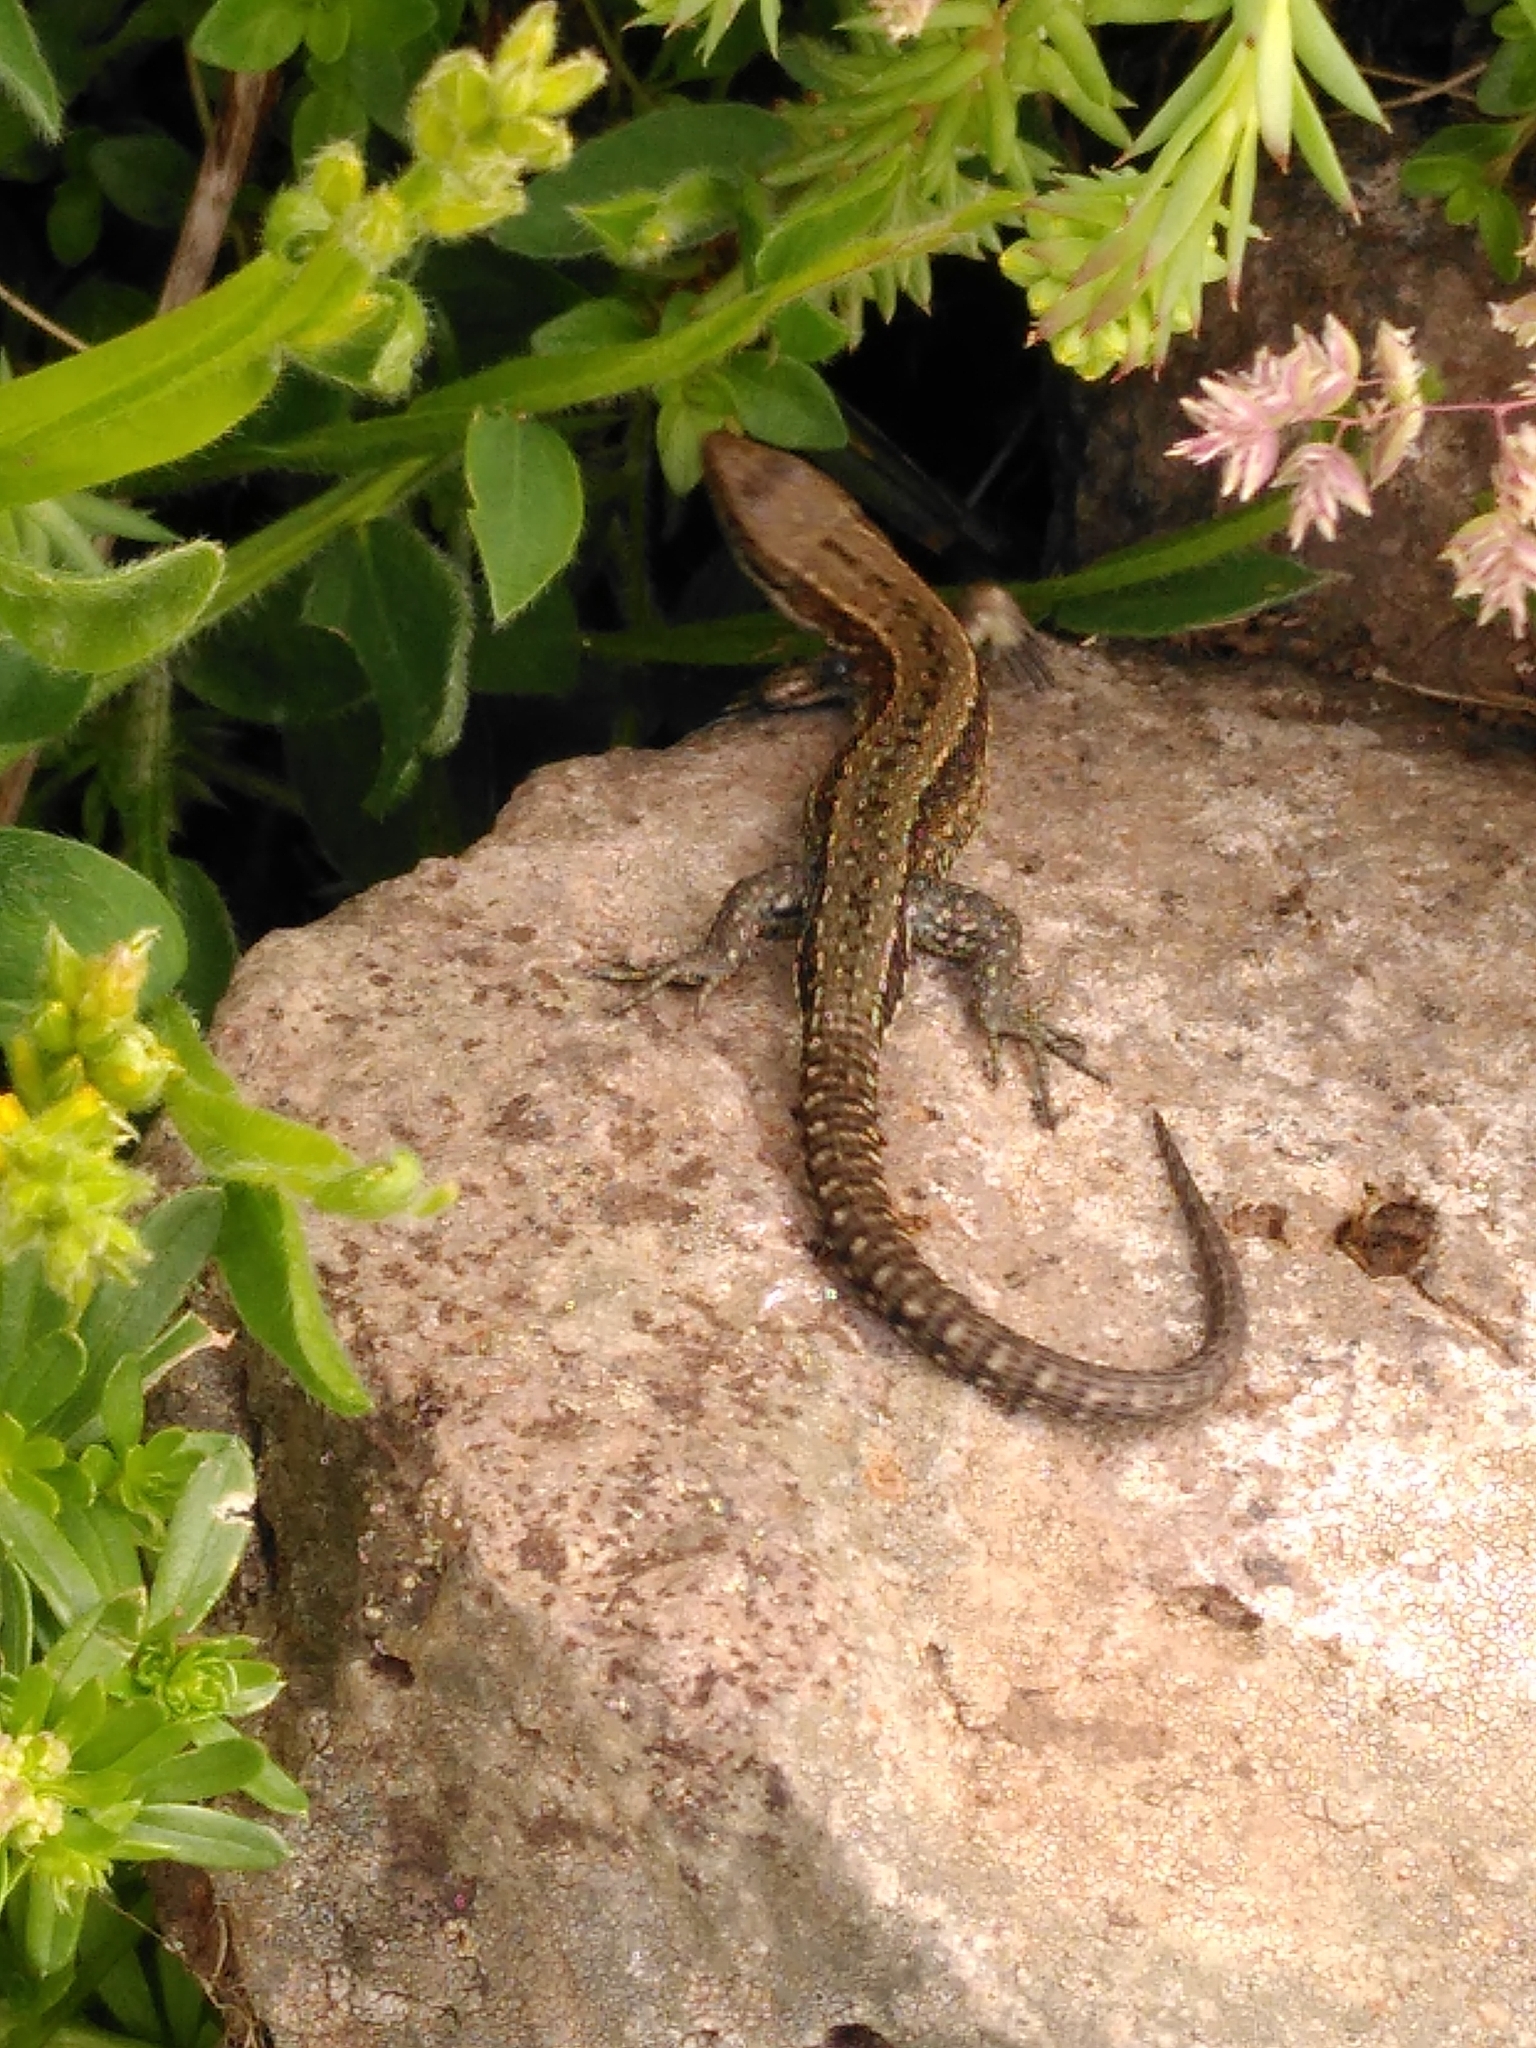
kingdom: Animalia
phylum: Chordata
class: Squamata
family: Lacertidae
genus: Zootoca
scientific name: Zootoca vivipara
